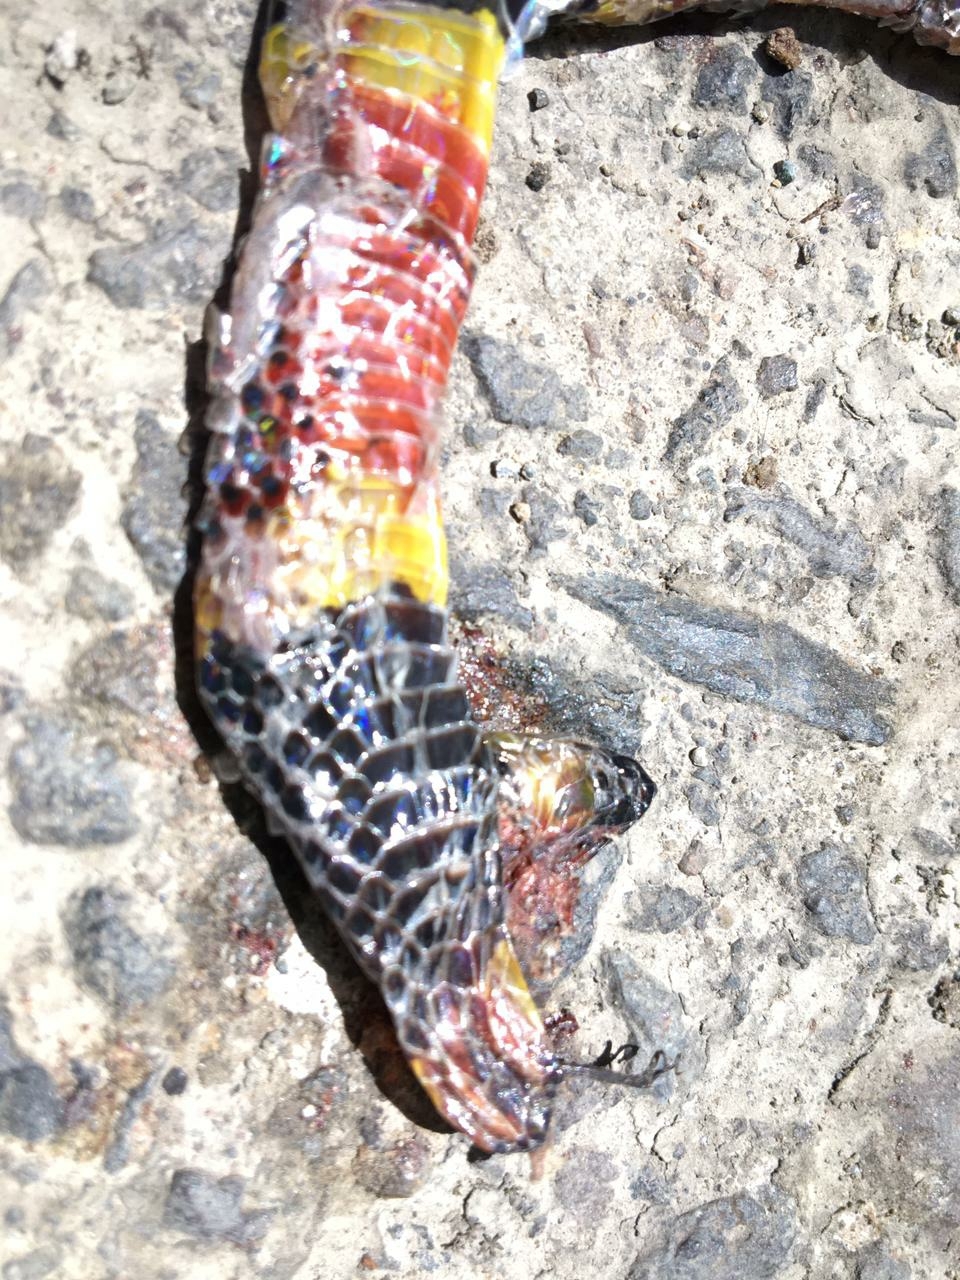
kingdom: Animalia
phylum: Chordata
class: Squamata
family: Elapidae
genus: Micrurus
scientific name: Micrurus mosquitensis
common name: Misquito coral snake
